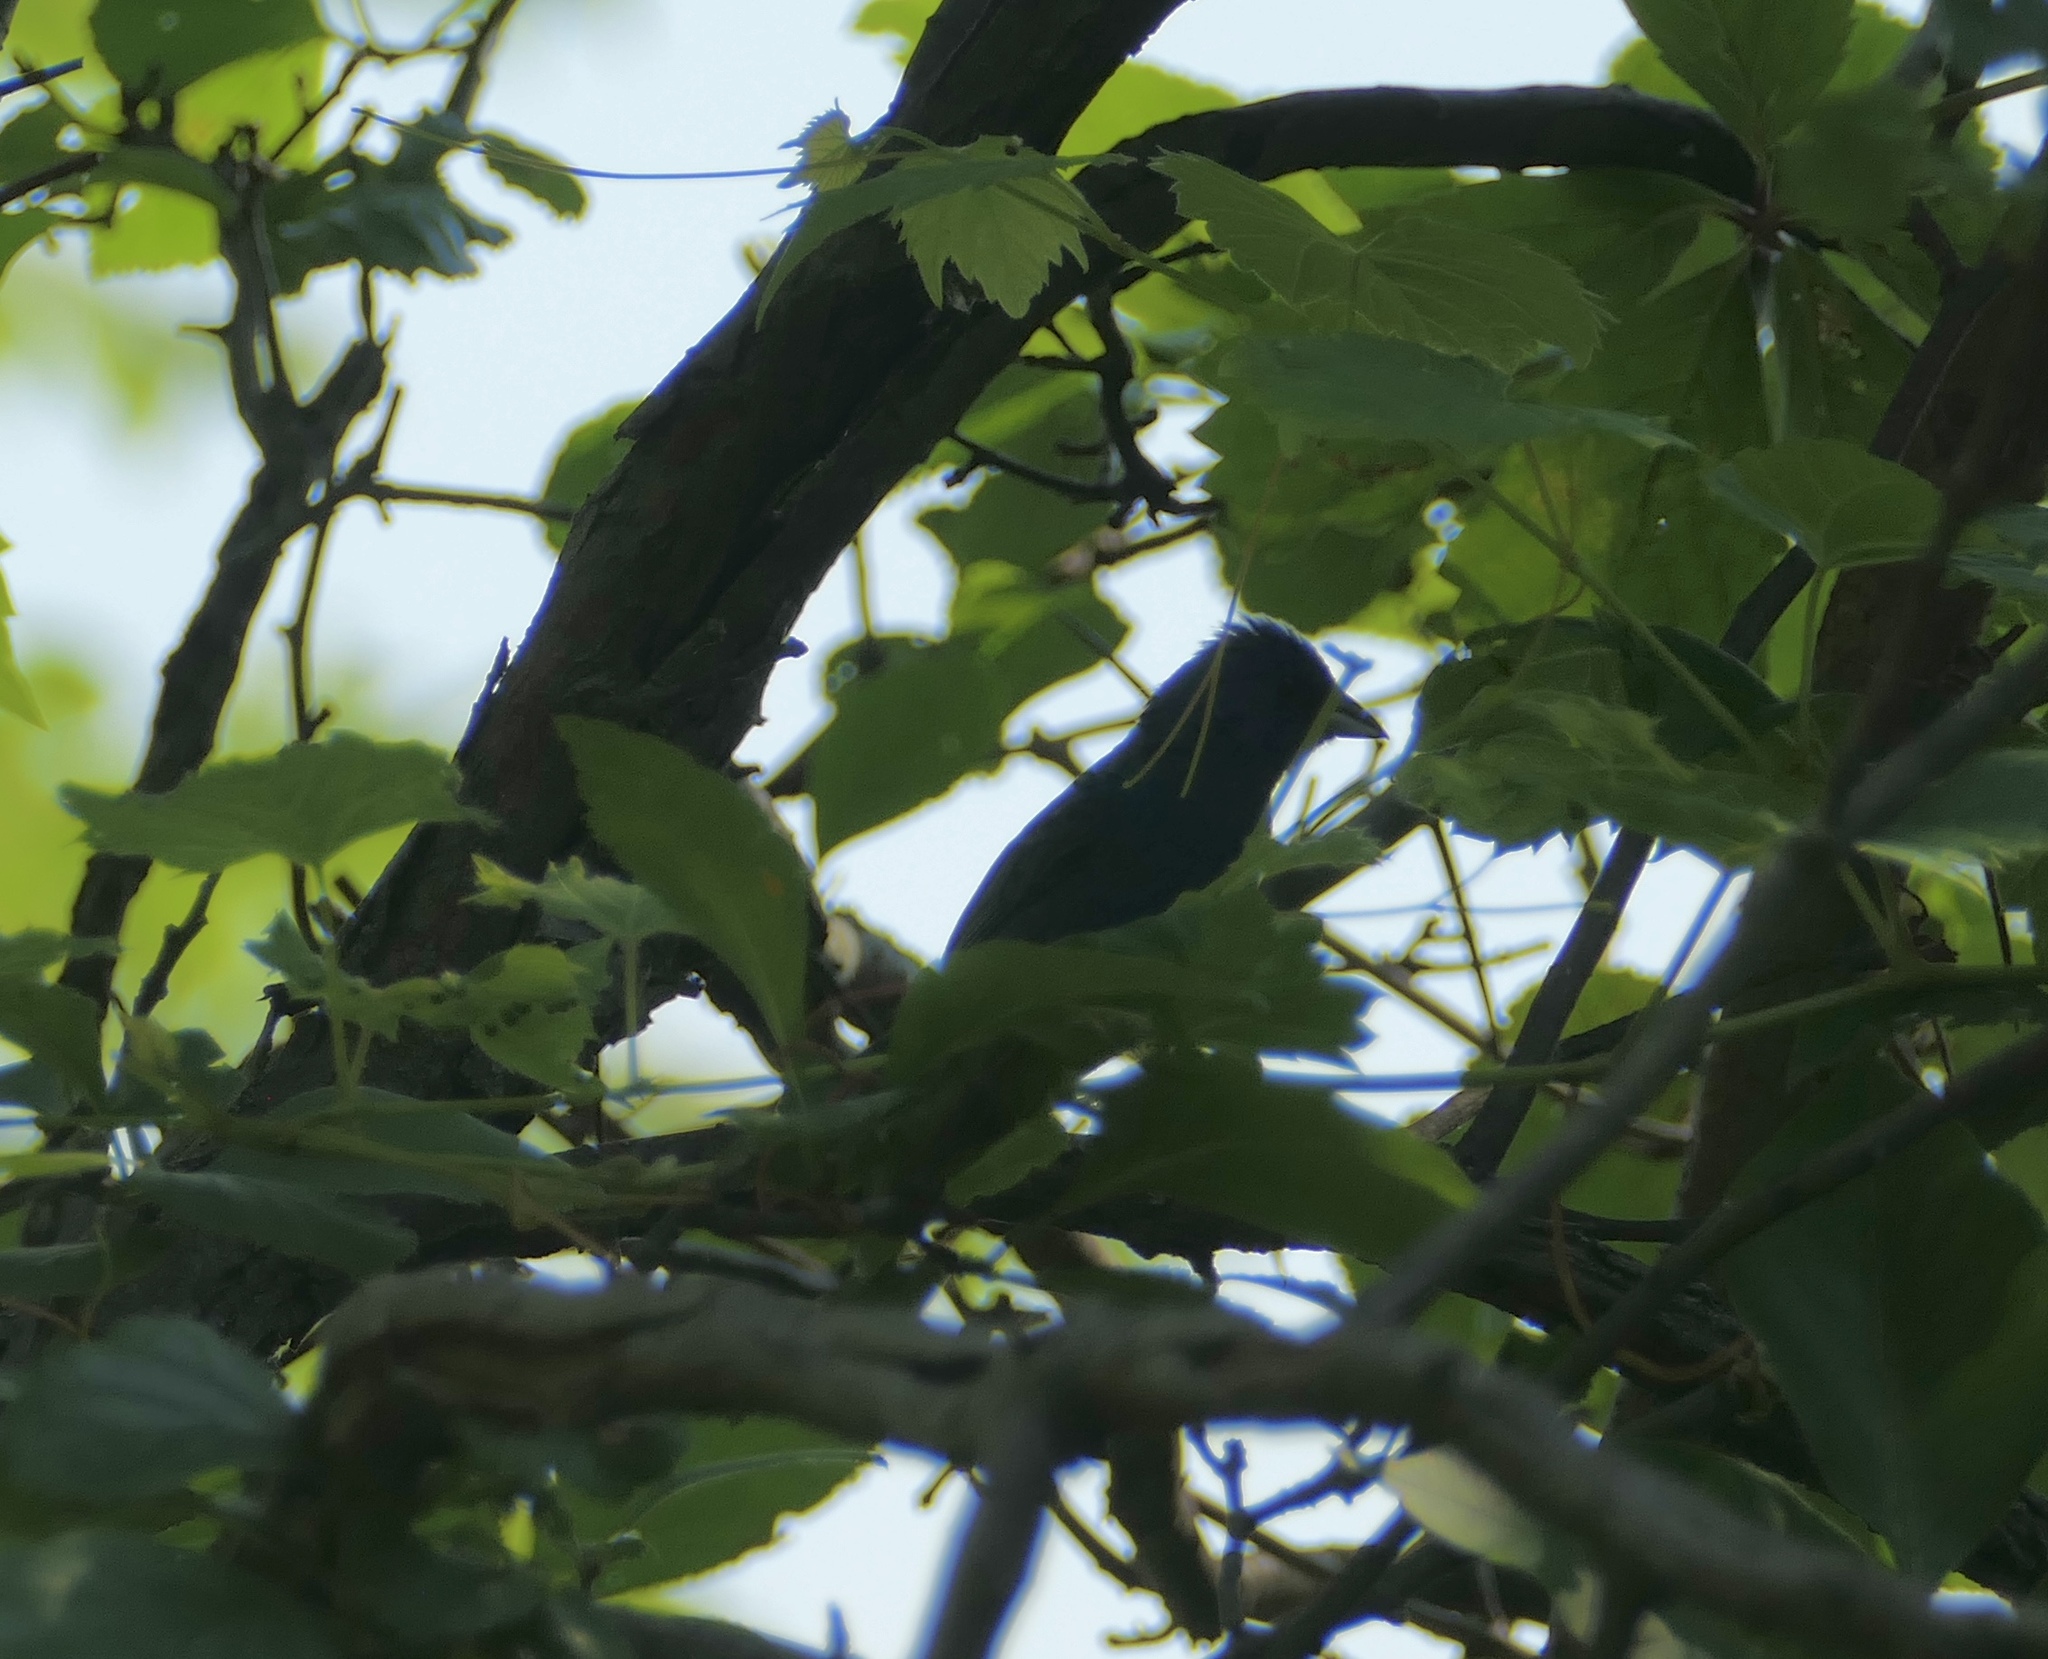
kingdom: Animalia
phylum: Chordata
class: Aves
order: Passeriformes
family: Cardinalidae
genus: Passerina
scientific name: Passerina cyanea
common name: Indigo bunting
